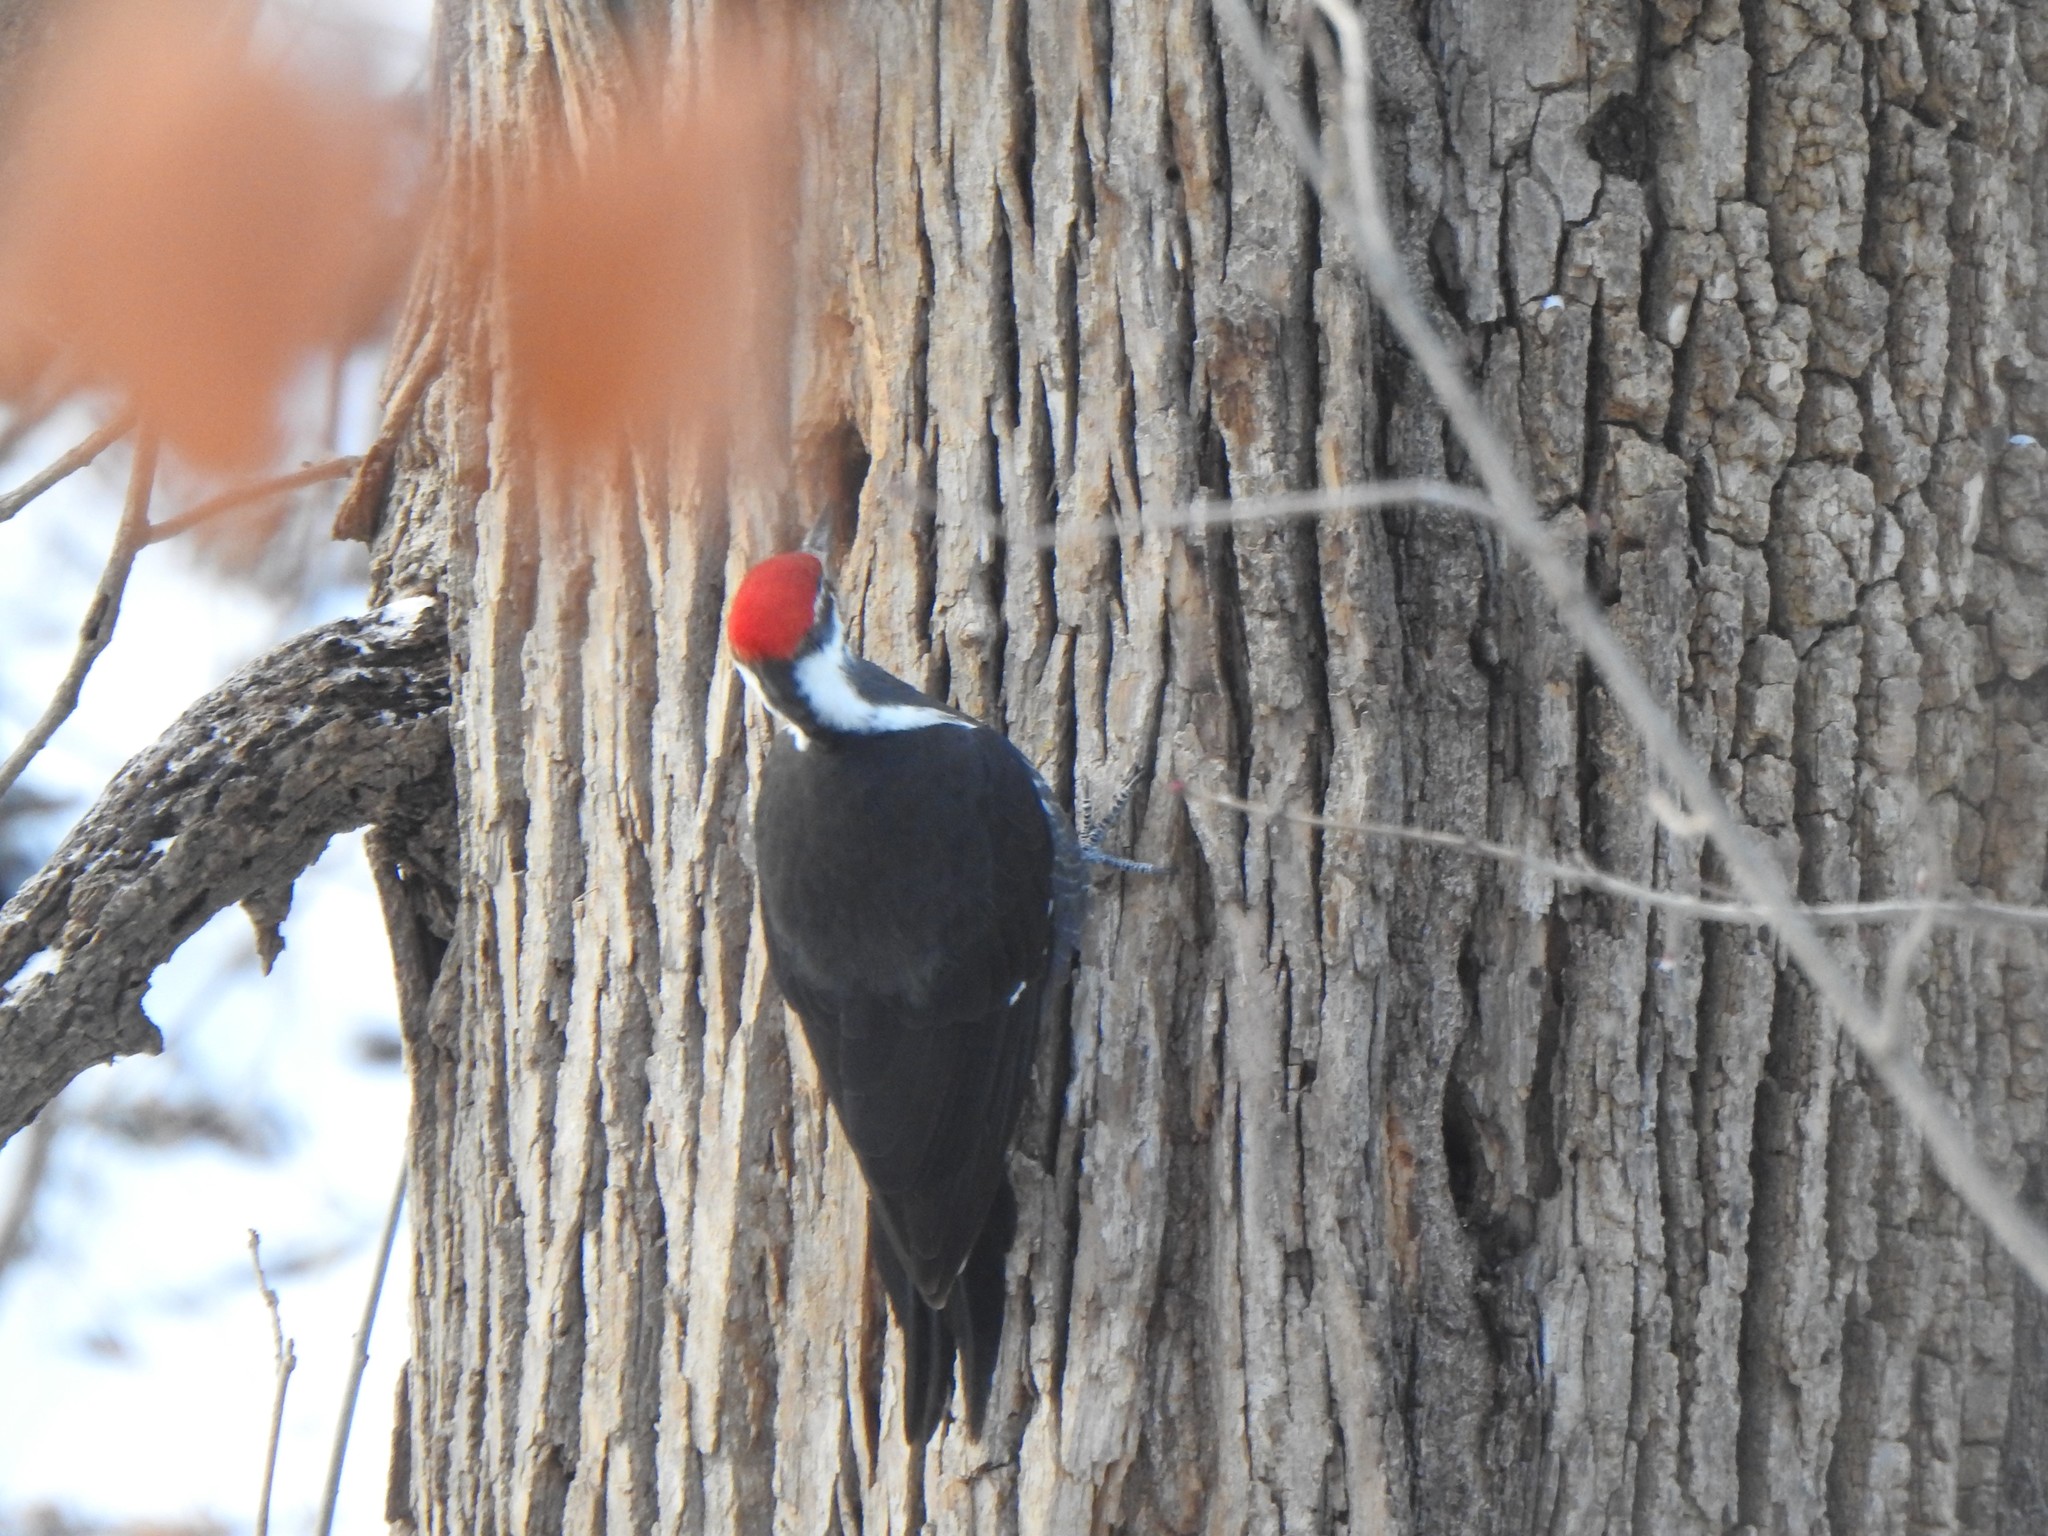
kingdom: Animalia
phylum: Chordata
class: Aves
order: Piciformes
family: Picidae
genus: Dryocopus
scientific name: Dryocopus pileatus
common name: Pileated woodpecker
